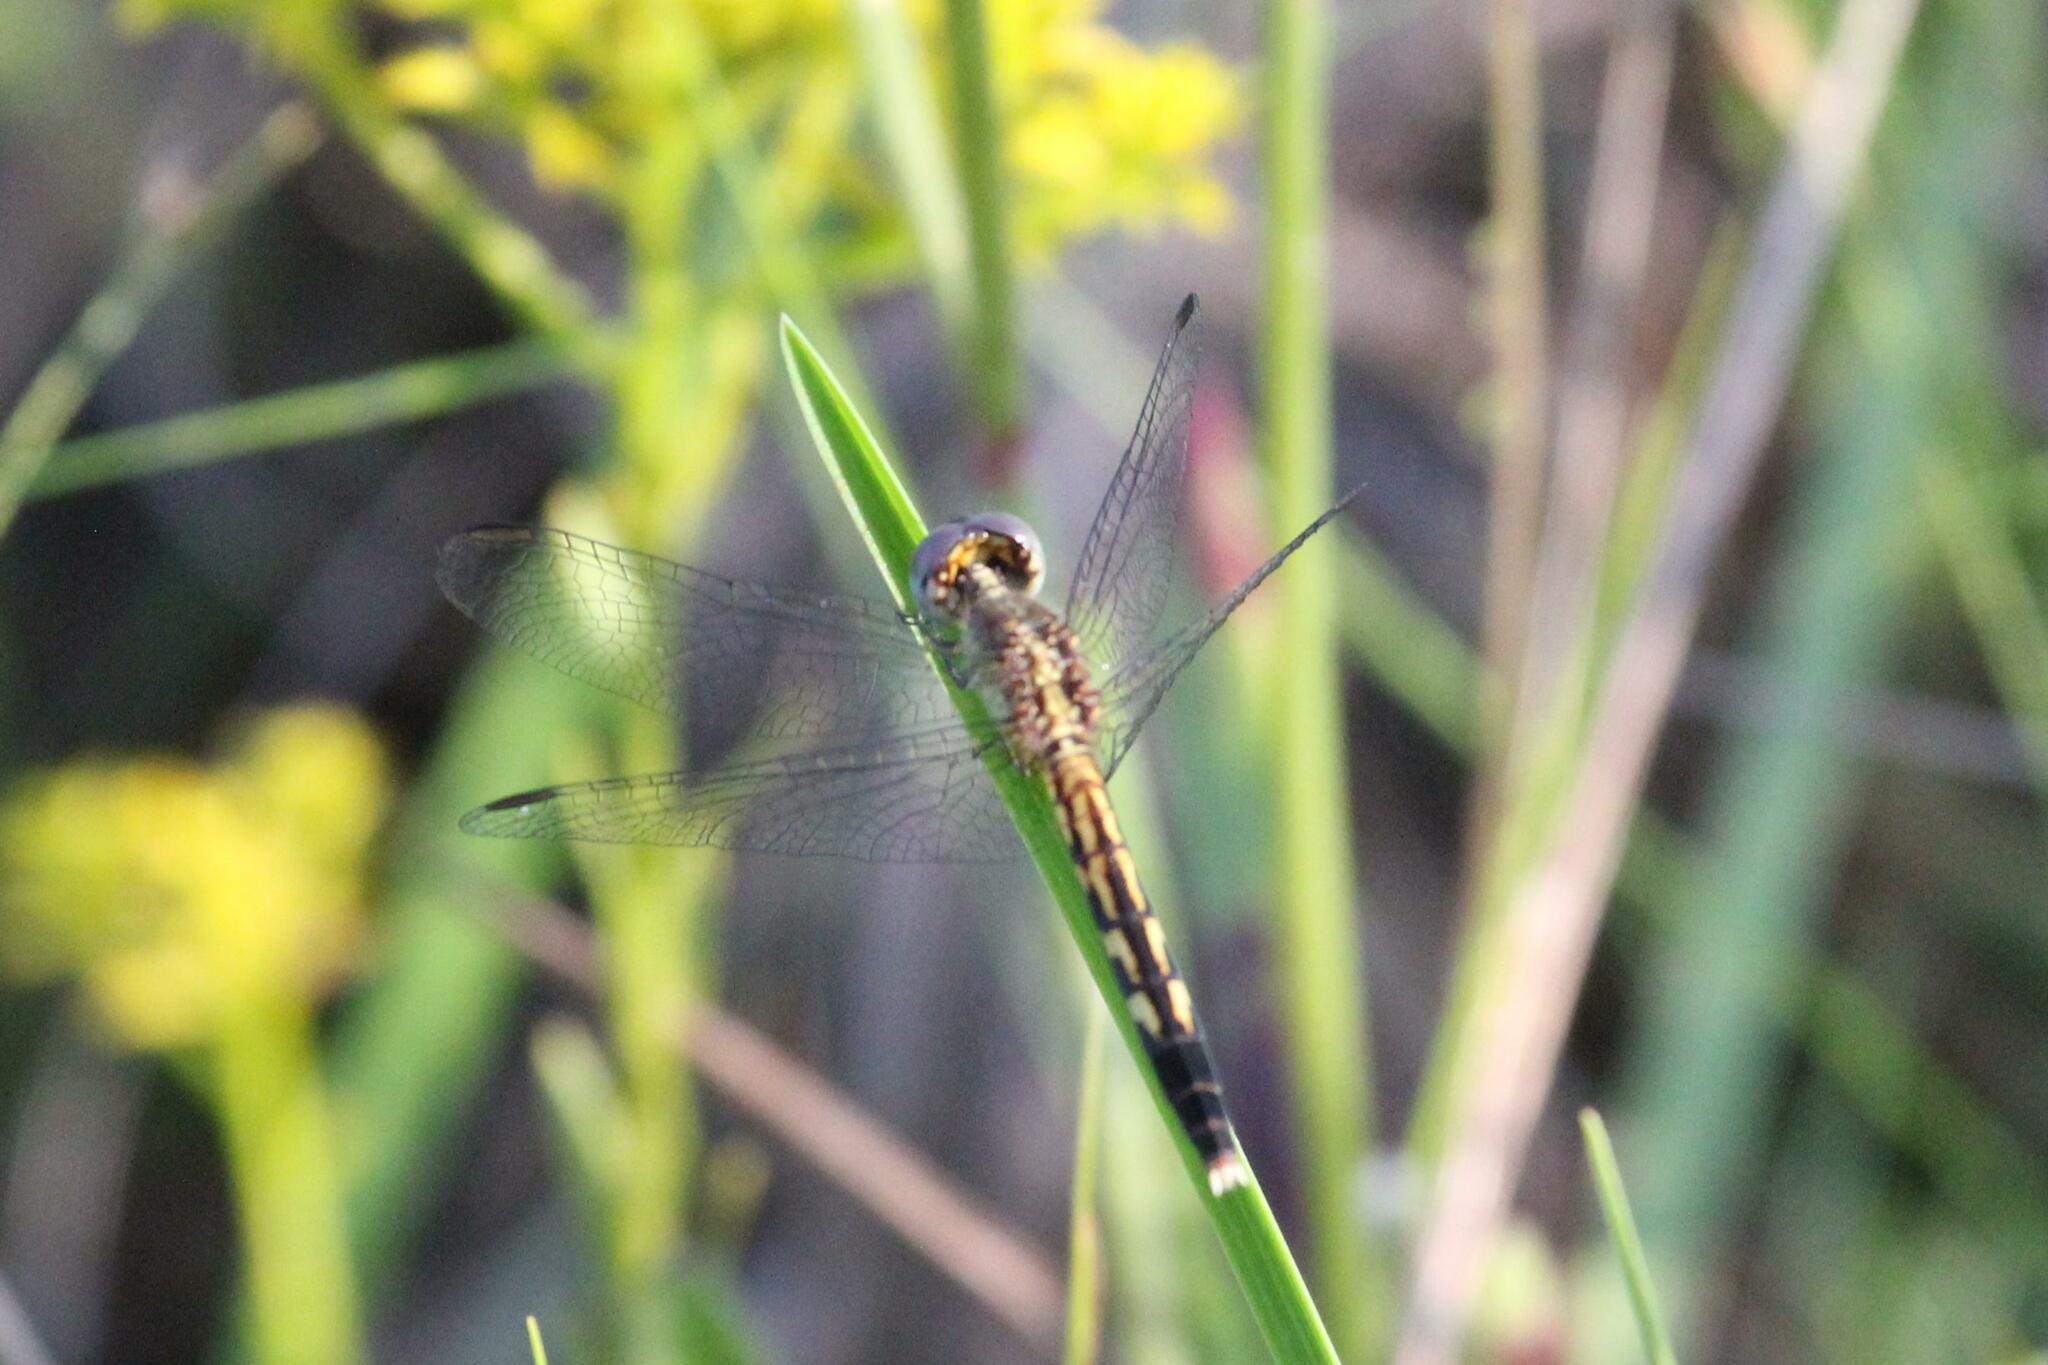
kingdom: Animalia
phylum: Arthropoda
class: Insecta
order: Odonata
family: Libellulidae
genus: Erythrodiplax
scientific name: Erythrodiplax minuscula
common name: Little blue dragonlet
